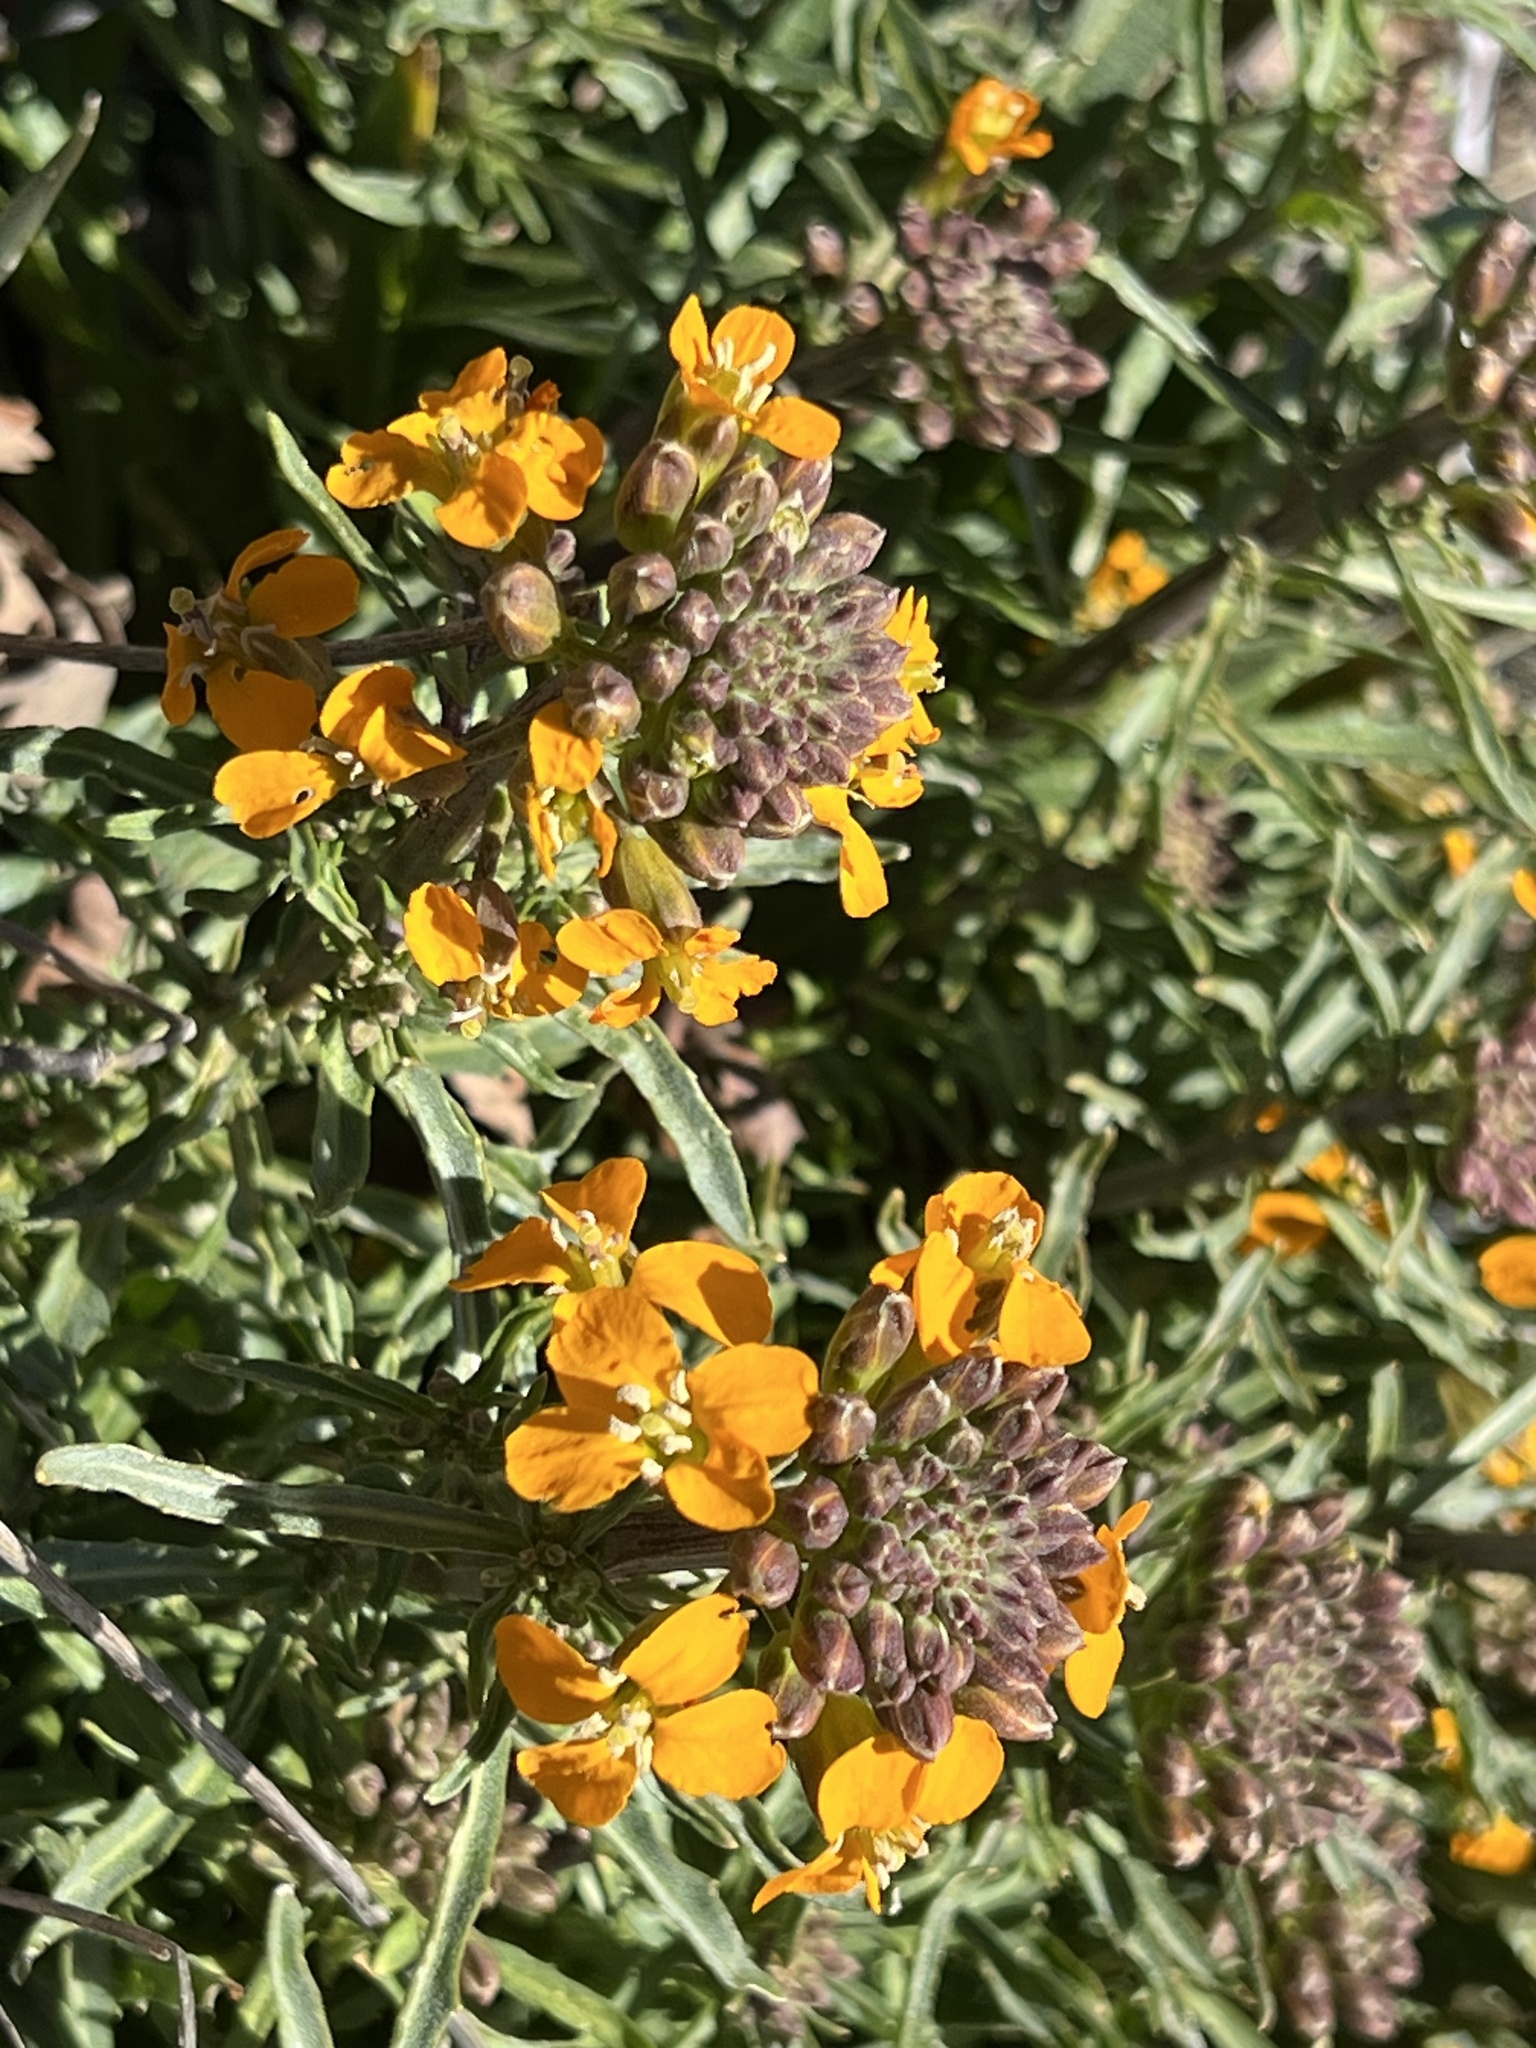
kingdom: Plantae
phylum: Tracheophyta
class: Magnoliopsida
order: Brassicales
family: Brassicaceae
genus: Erysimum
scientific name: Erysimum capitatum
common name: Western wallflower
